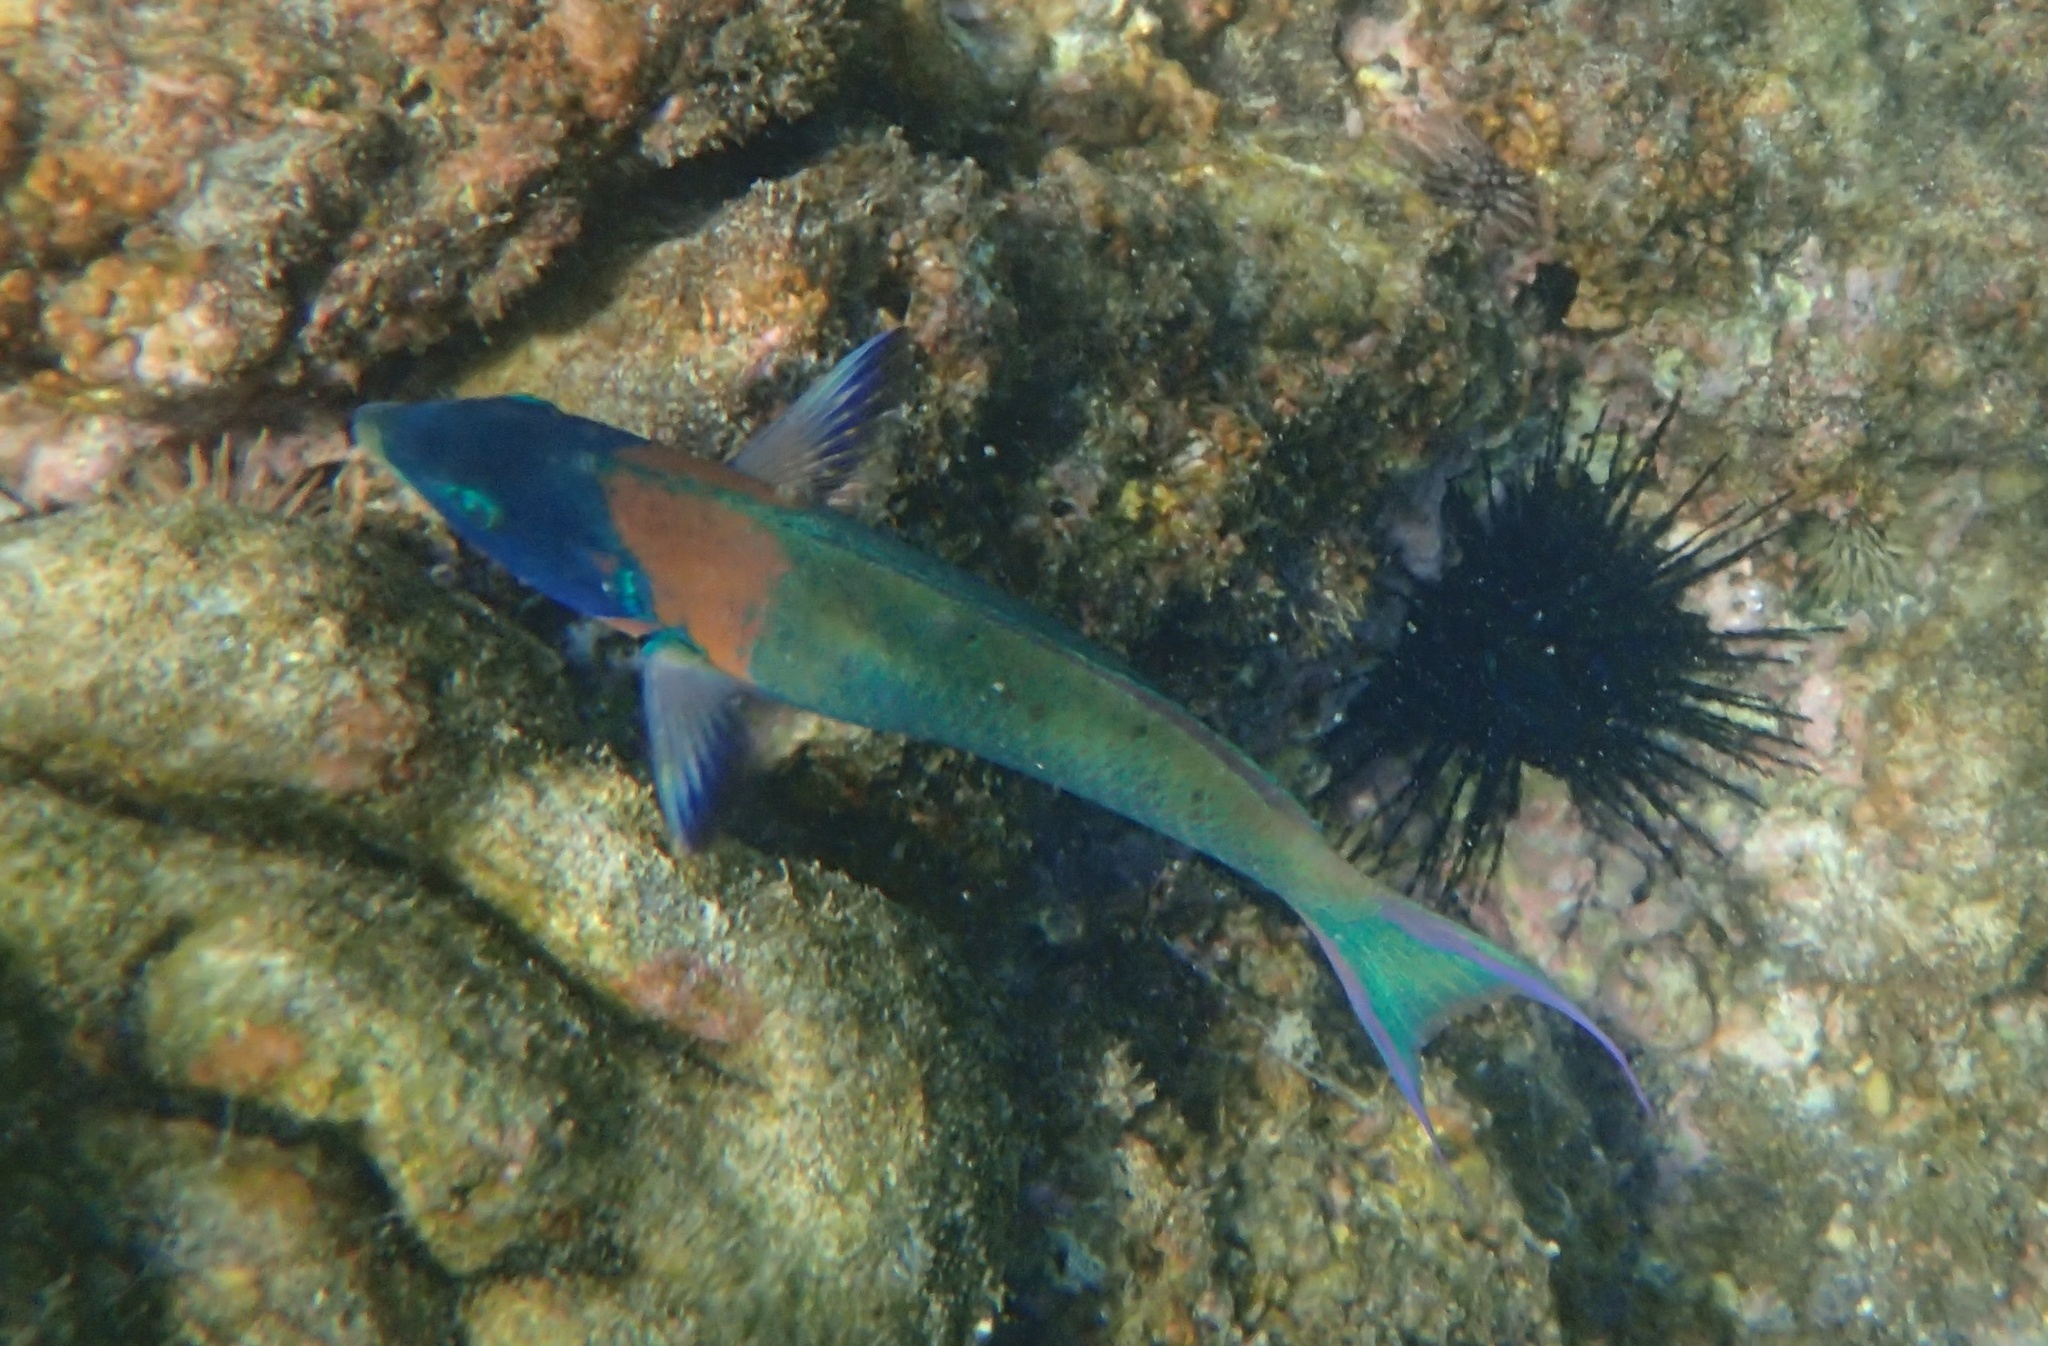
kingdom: Animalia
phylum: Chordata
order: Perciformes
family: Labridae
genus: Thalassoma
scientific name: Thalassoma duperrey
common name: Saddle wrasse
